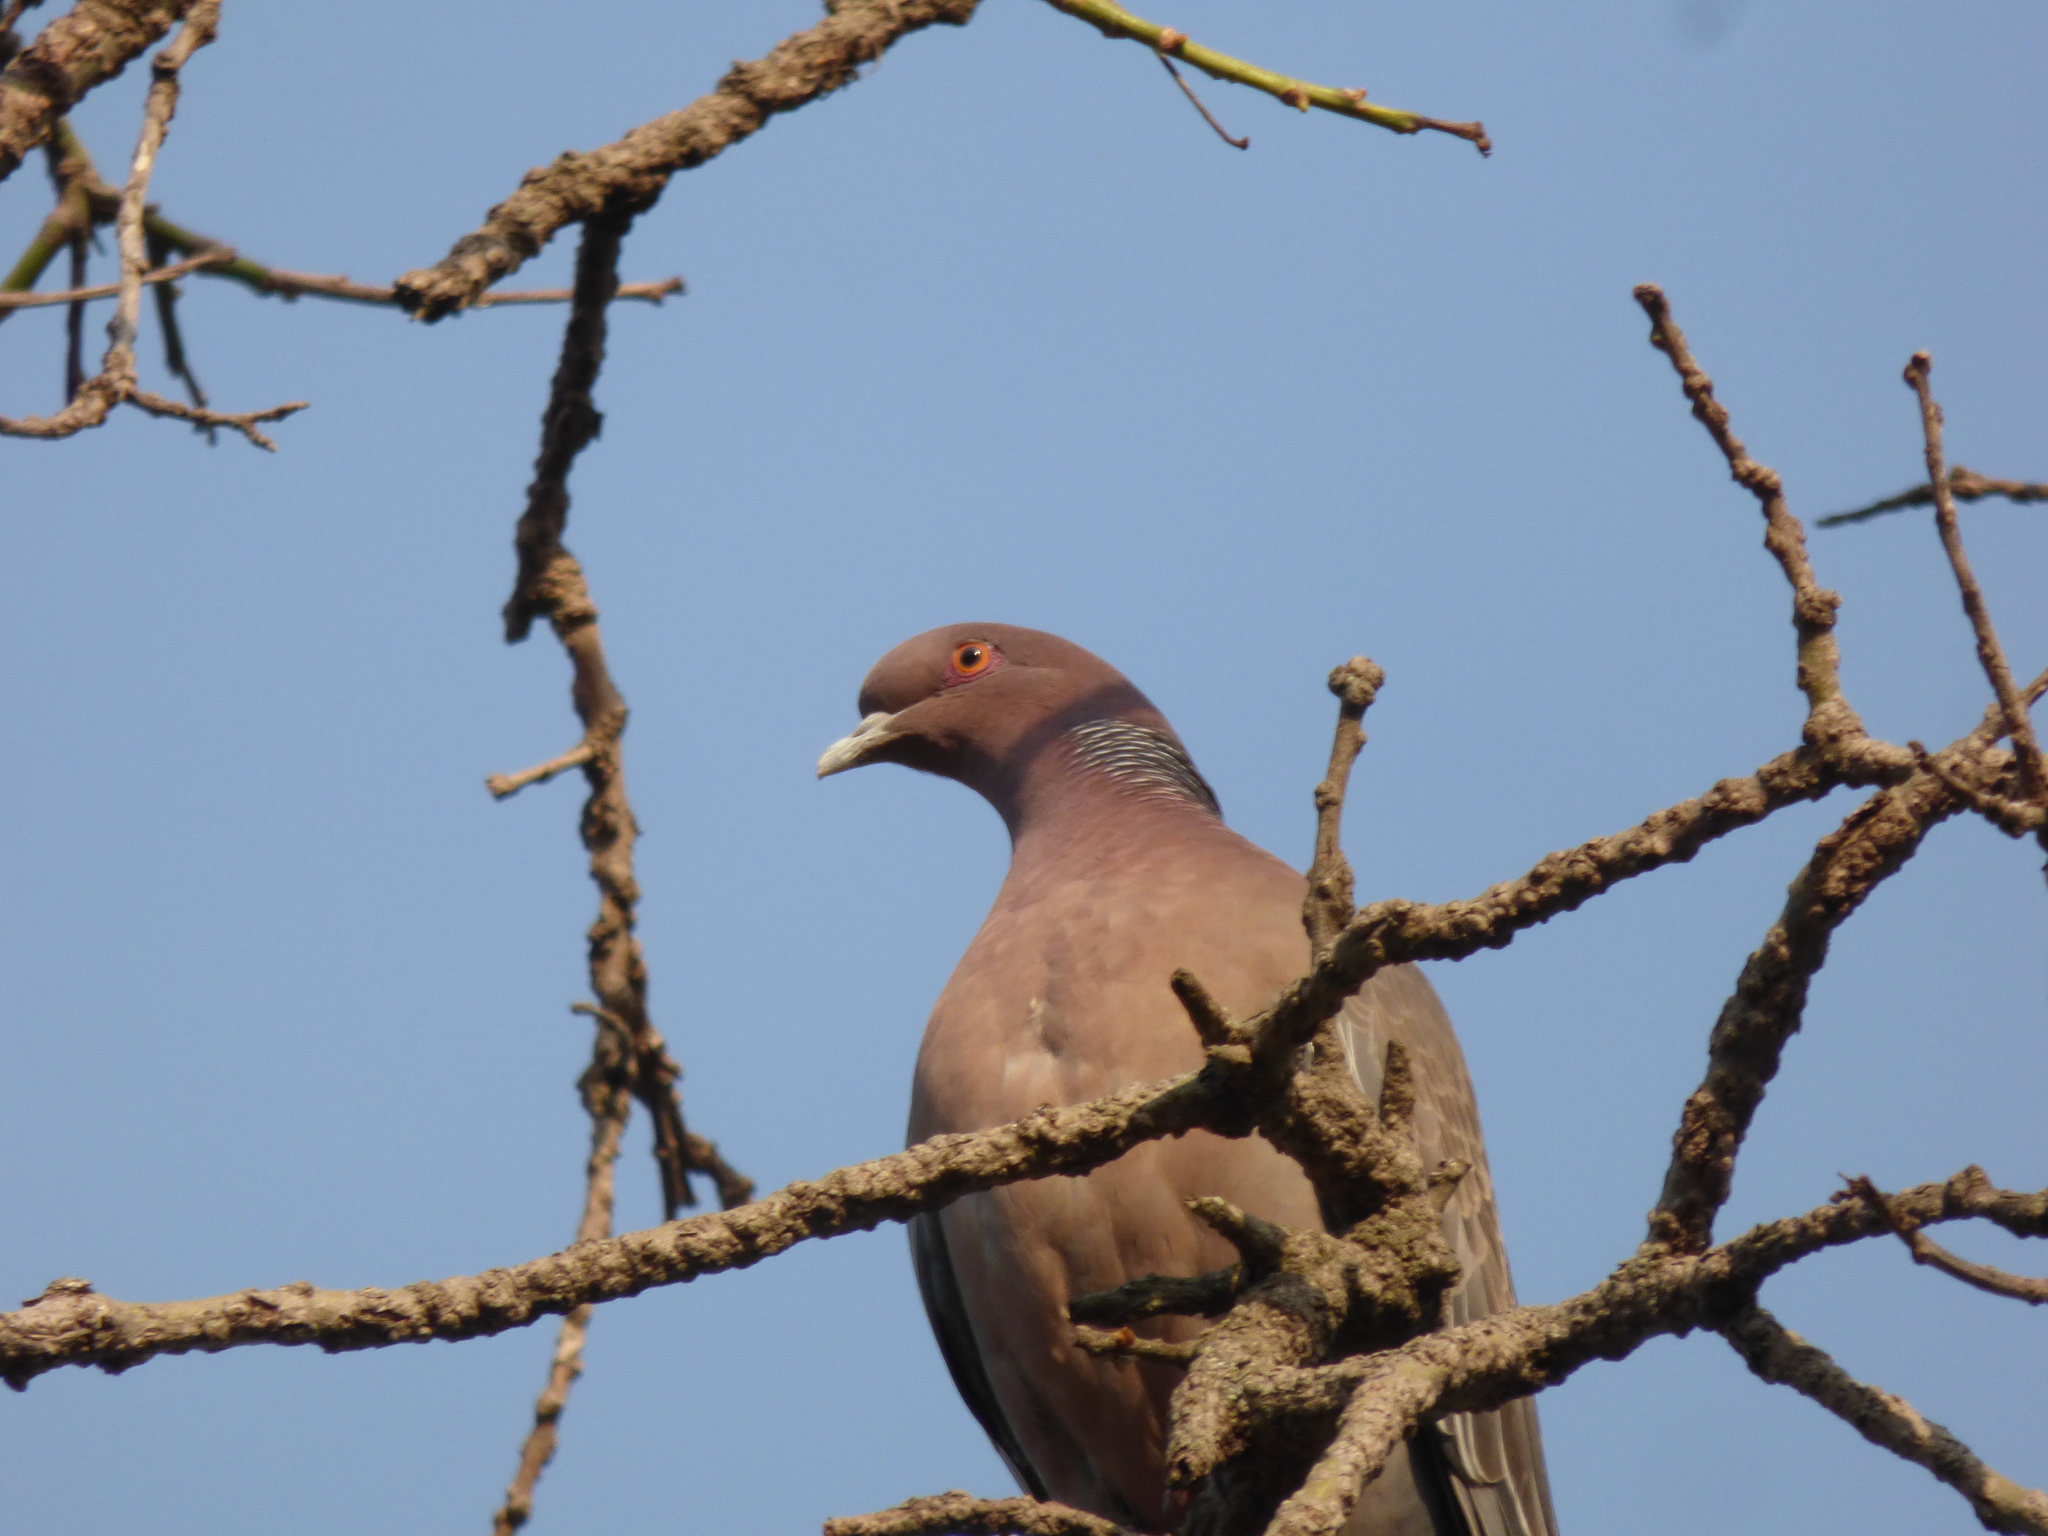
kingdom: Animalia
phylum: Chordata
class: Aves
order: Columbiformes
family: Columbidae
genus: Patagioenas
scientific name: Patagioenas picazuro
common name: Picazuro pigeon
